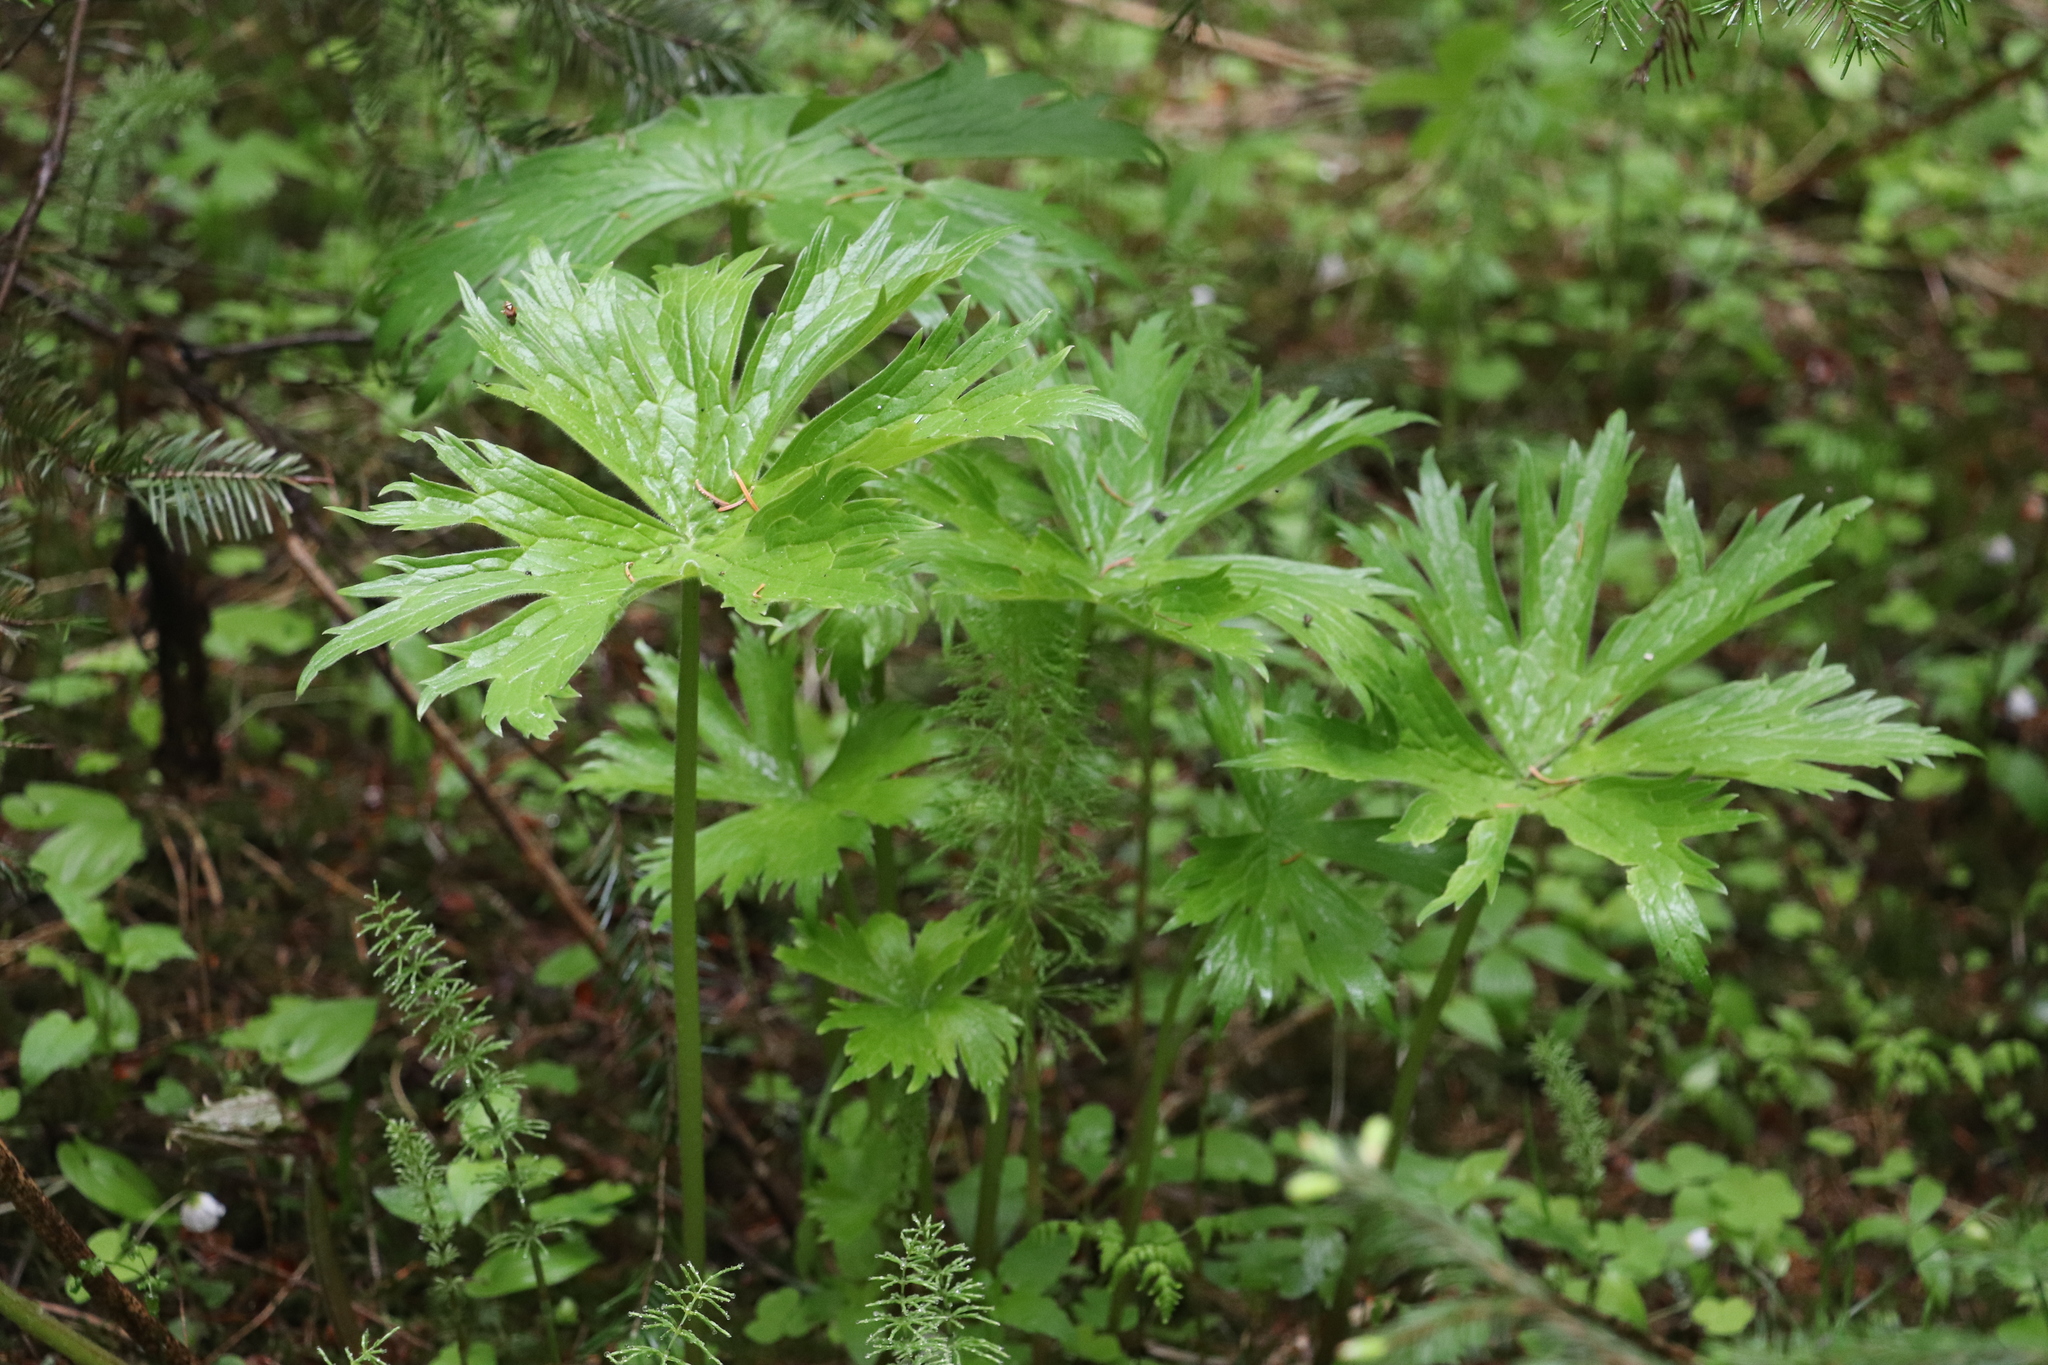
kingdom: Plantae
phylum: Tracheophyta
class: Magnoliopsida
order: Ranunculales
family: Ranunculaceae
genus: Aconitum
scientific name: Aconitum septentrionale
